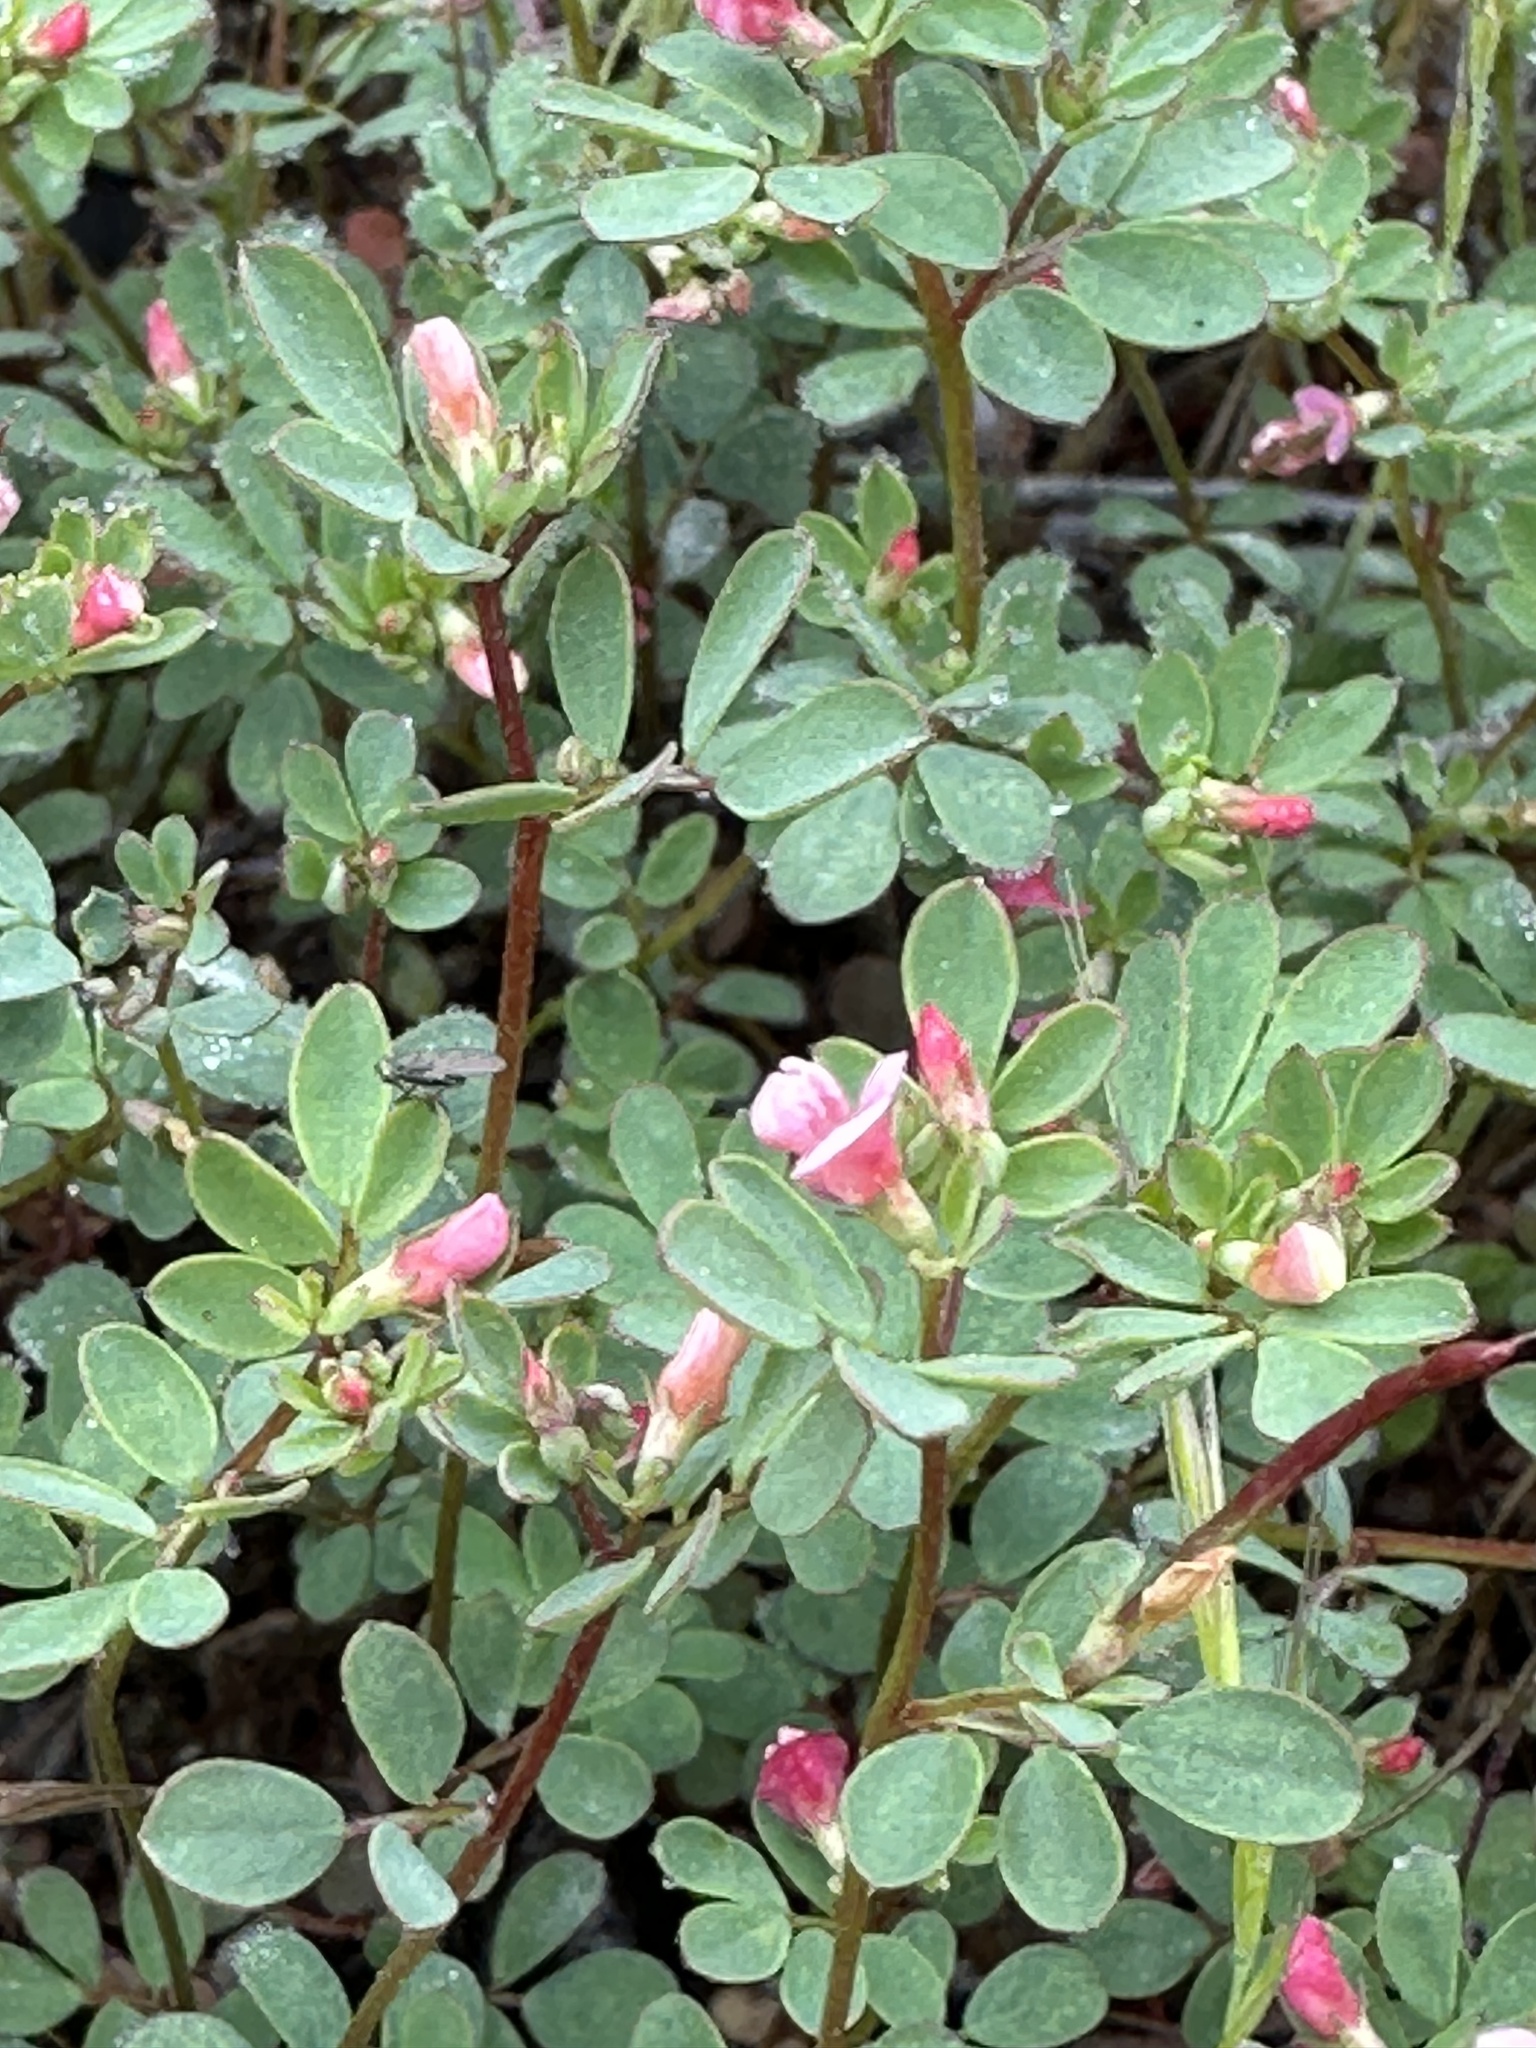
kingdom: Plantae
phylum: Tracheophyta
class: Magnoliopsida
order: Fabales
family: Fabaceae
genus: Acmispon
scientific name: Acmispon parviflorus
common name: Desert deer-vetch
